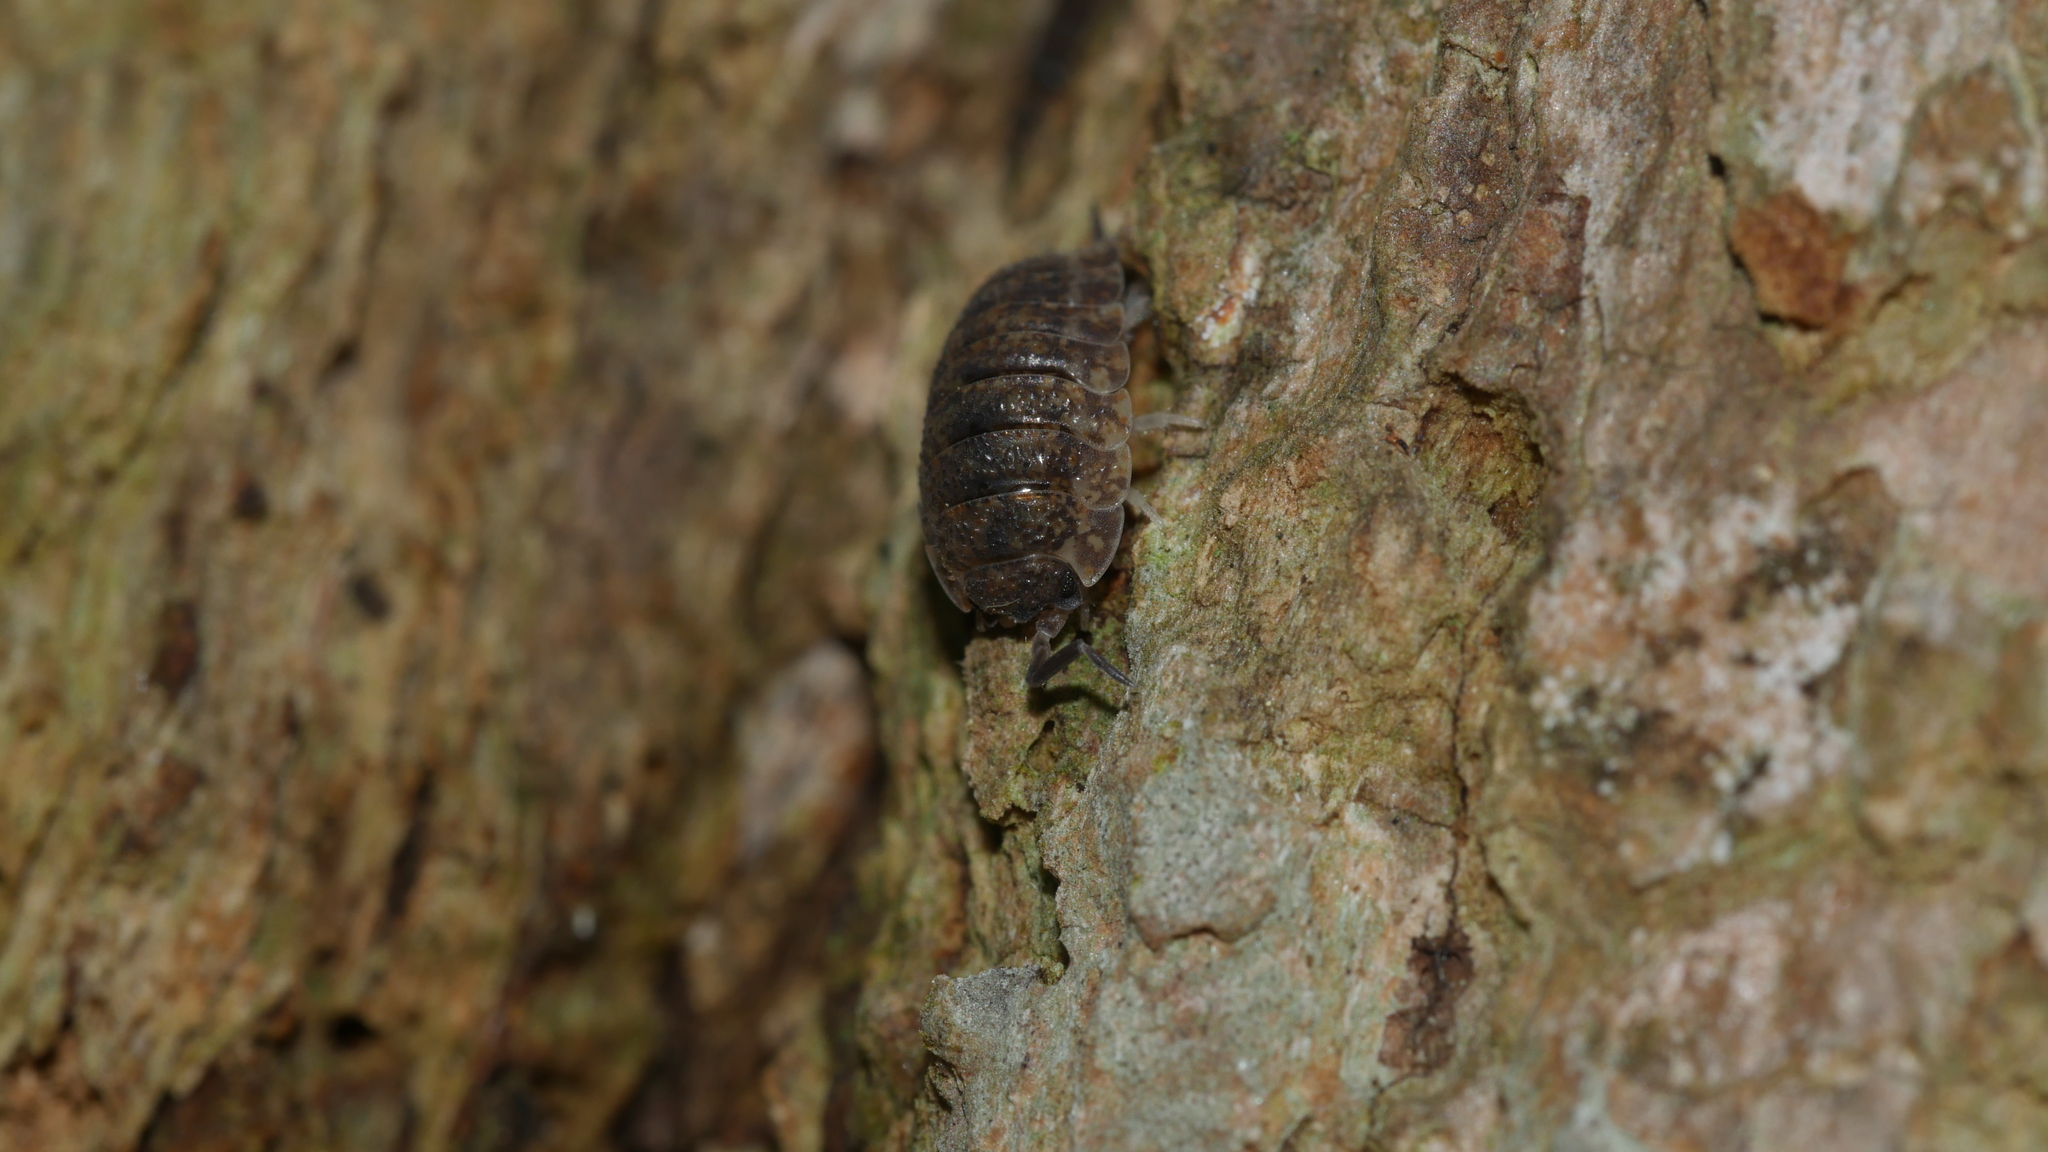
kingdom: Animalia
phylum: Arthropoda
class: Malacostraca
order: Isopoda
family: Porcellionidae
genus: Porcellio
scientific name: Porcellio scaber
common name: Common rough woodlouse
